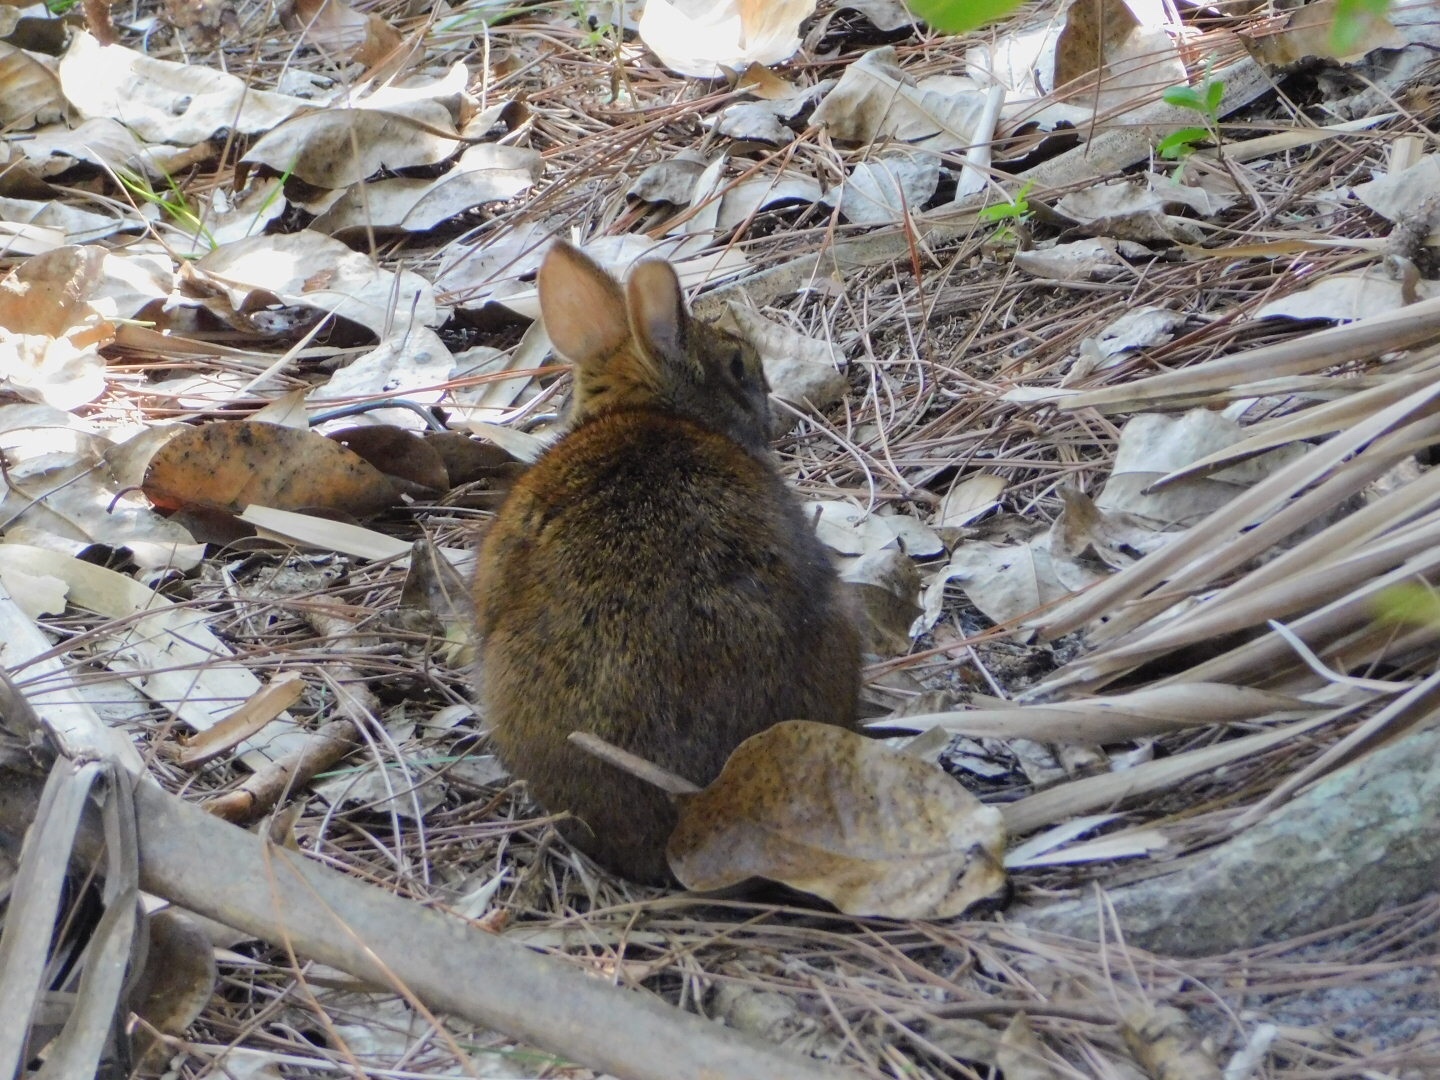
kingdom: Animalia
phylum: Chordata
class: Mammalia
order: Lagomorpha
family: Leporidae
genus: Sylvilagus
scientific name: Sylvilagus palustris
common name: Marsh rabbit
